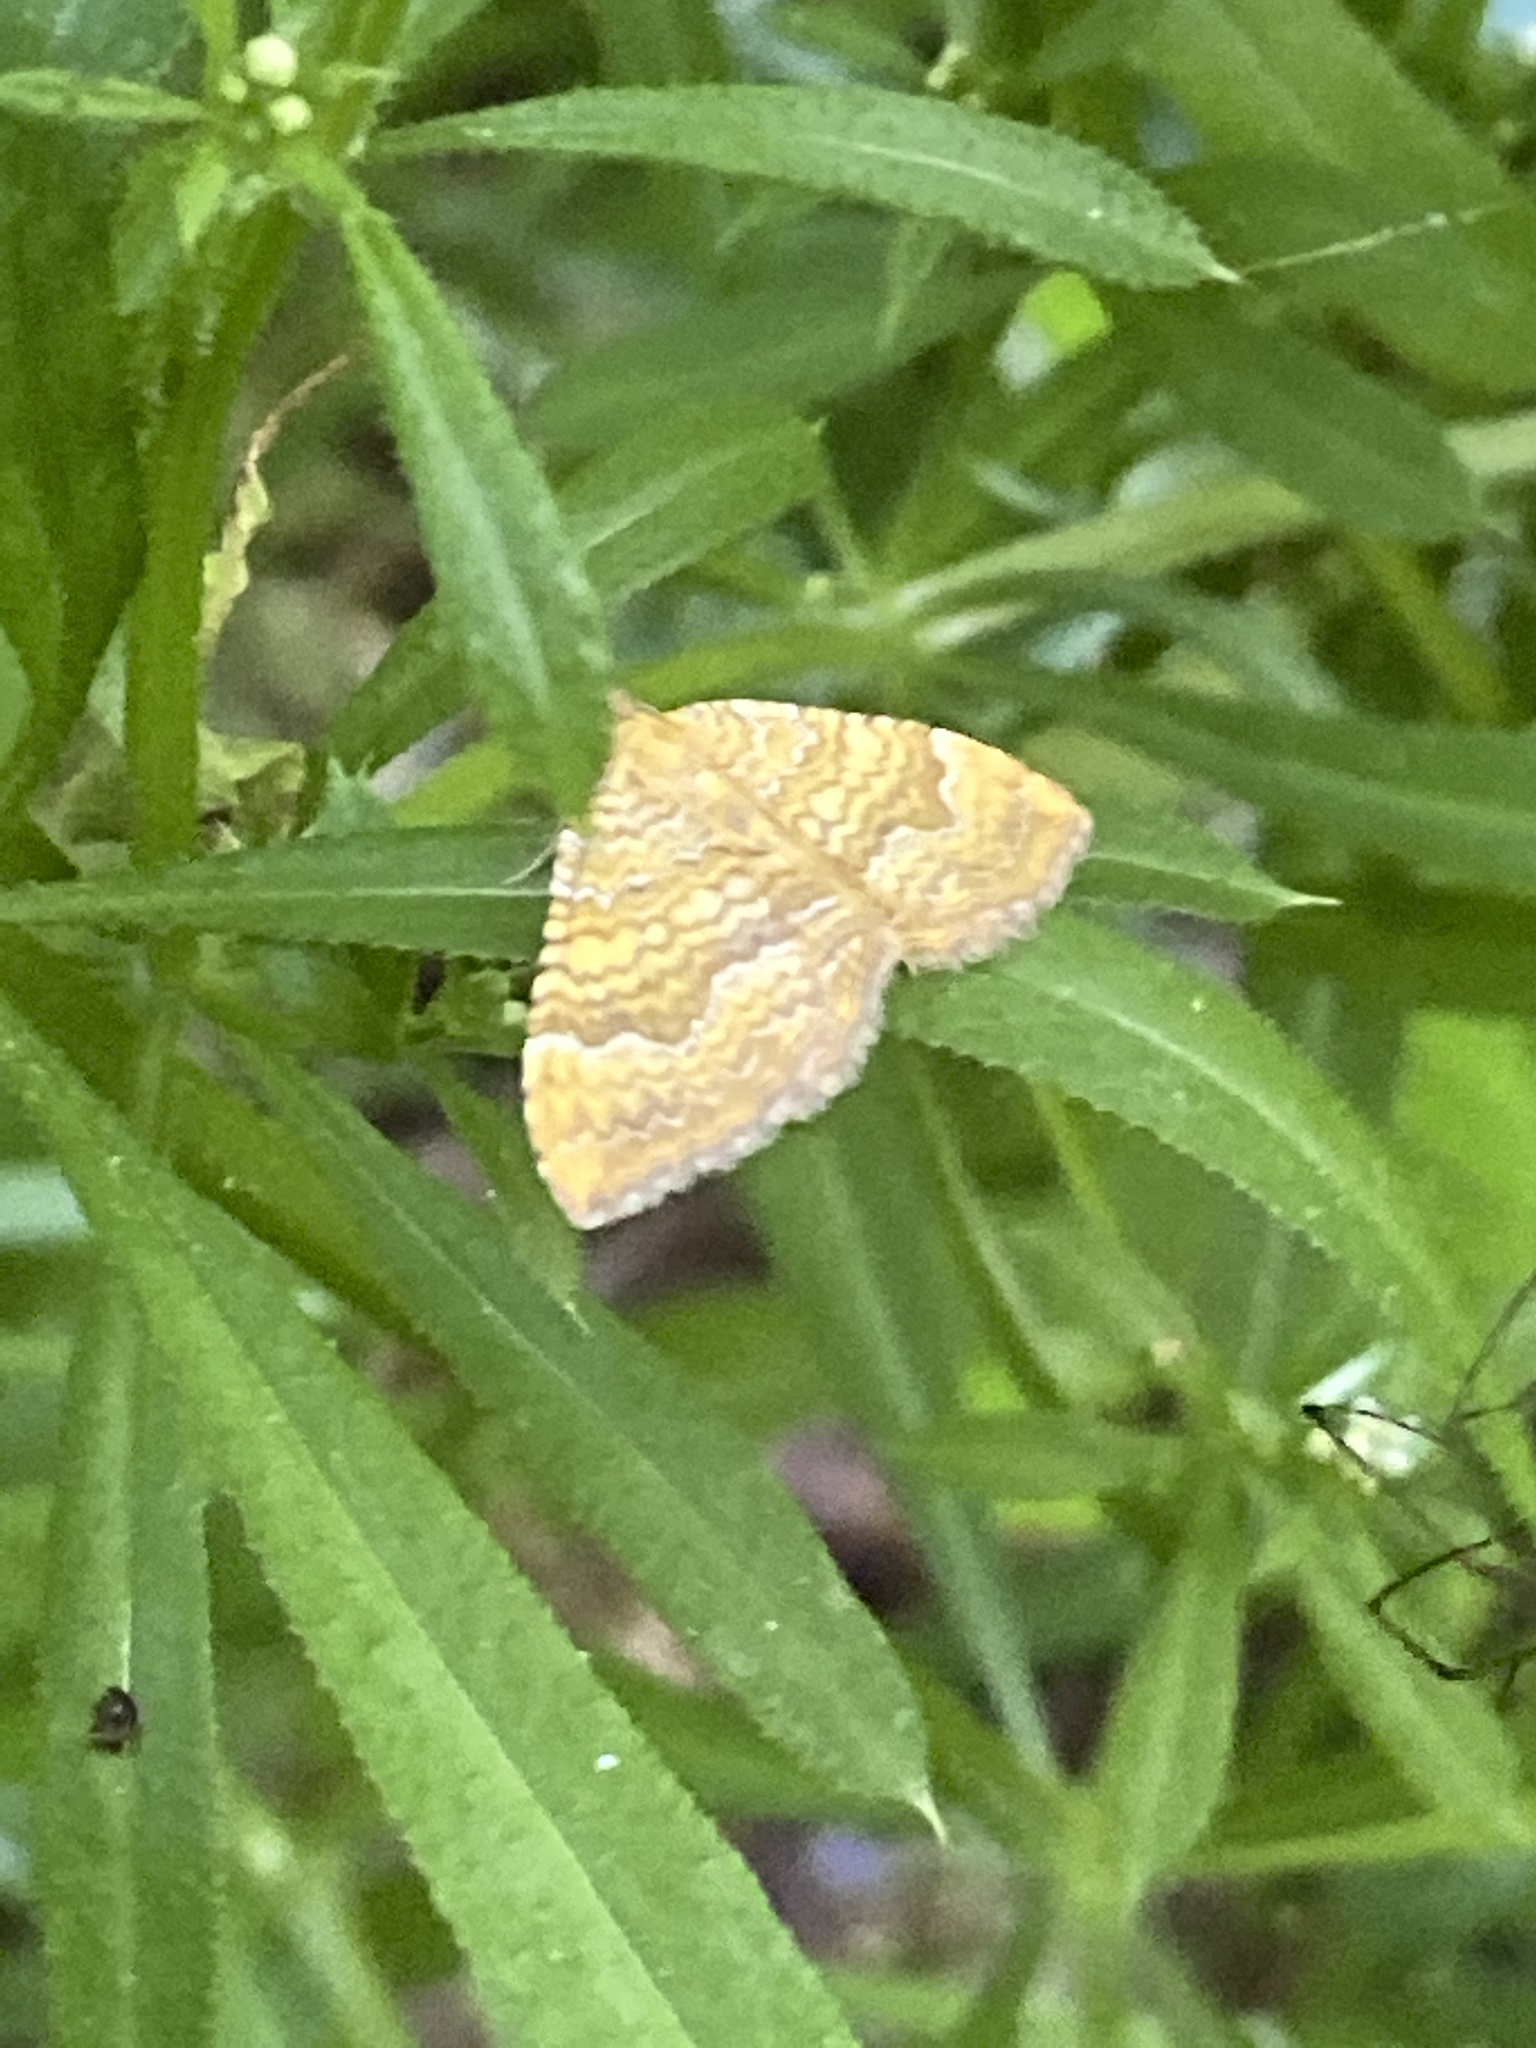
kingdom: Animalia
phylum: Arthropoda
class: Insecta
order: Lepidoptera
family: Geometridae
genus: Camptogramma
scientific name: Camptogramma bilineata
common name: Yellow shell
